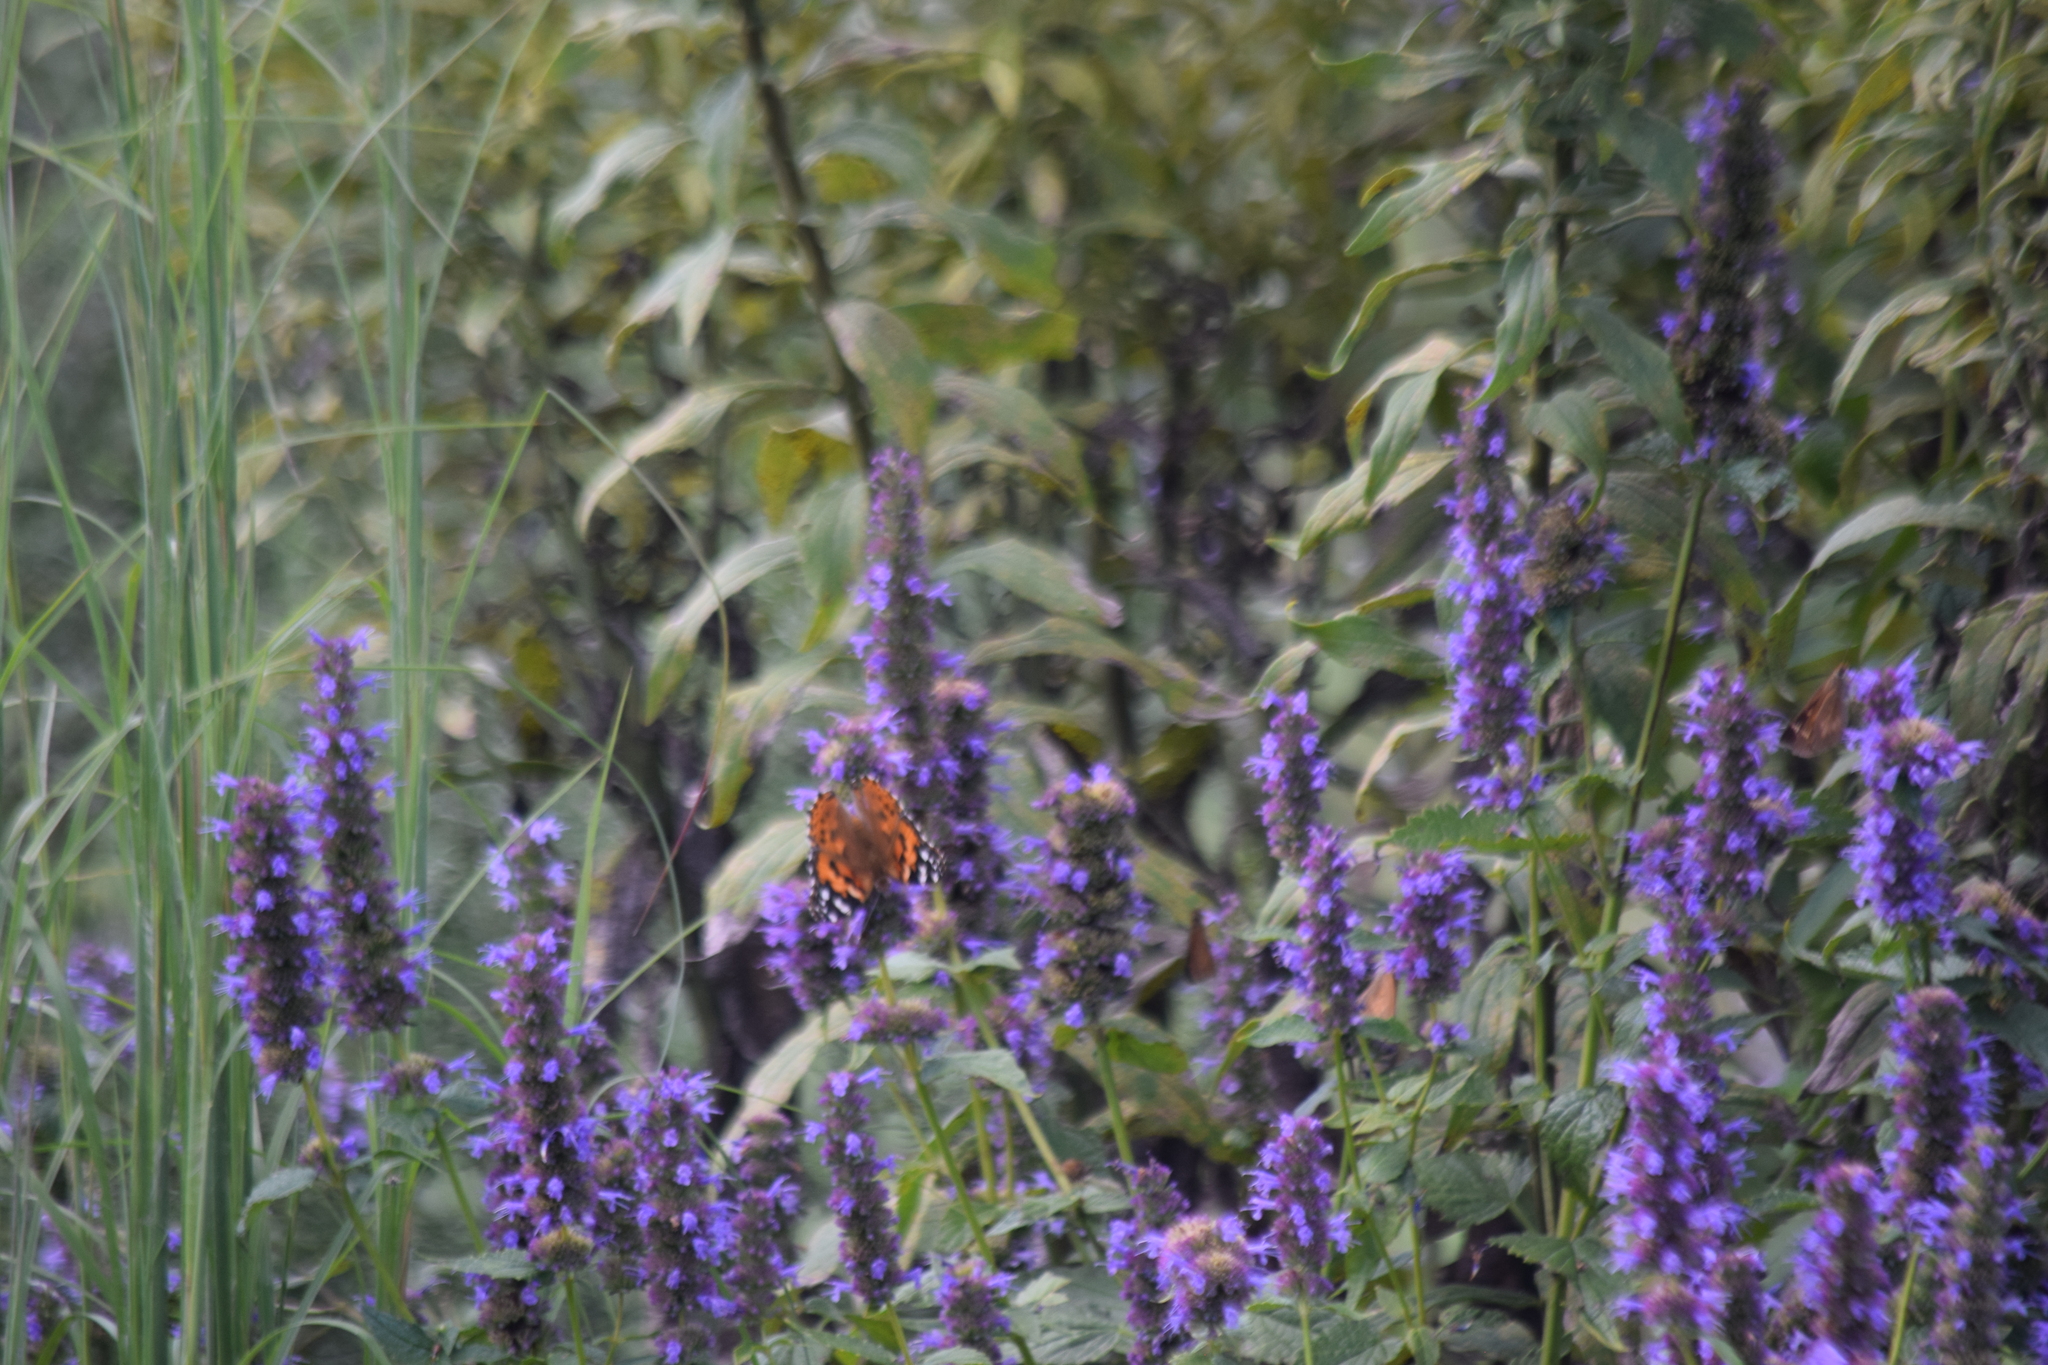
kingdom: Animalia
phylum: Arthropoda
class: Insecta
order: Lepidoptera
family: Nymphalidae
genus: Vanessa
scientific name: Vanessa cardui
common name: Painted lady
